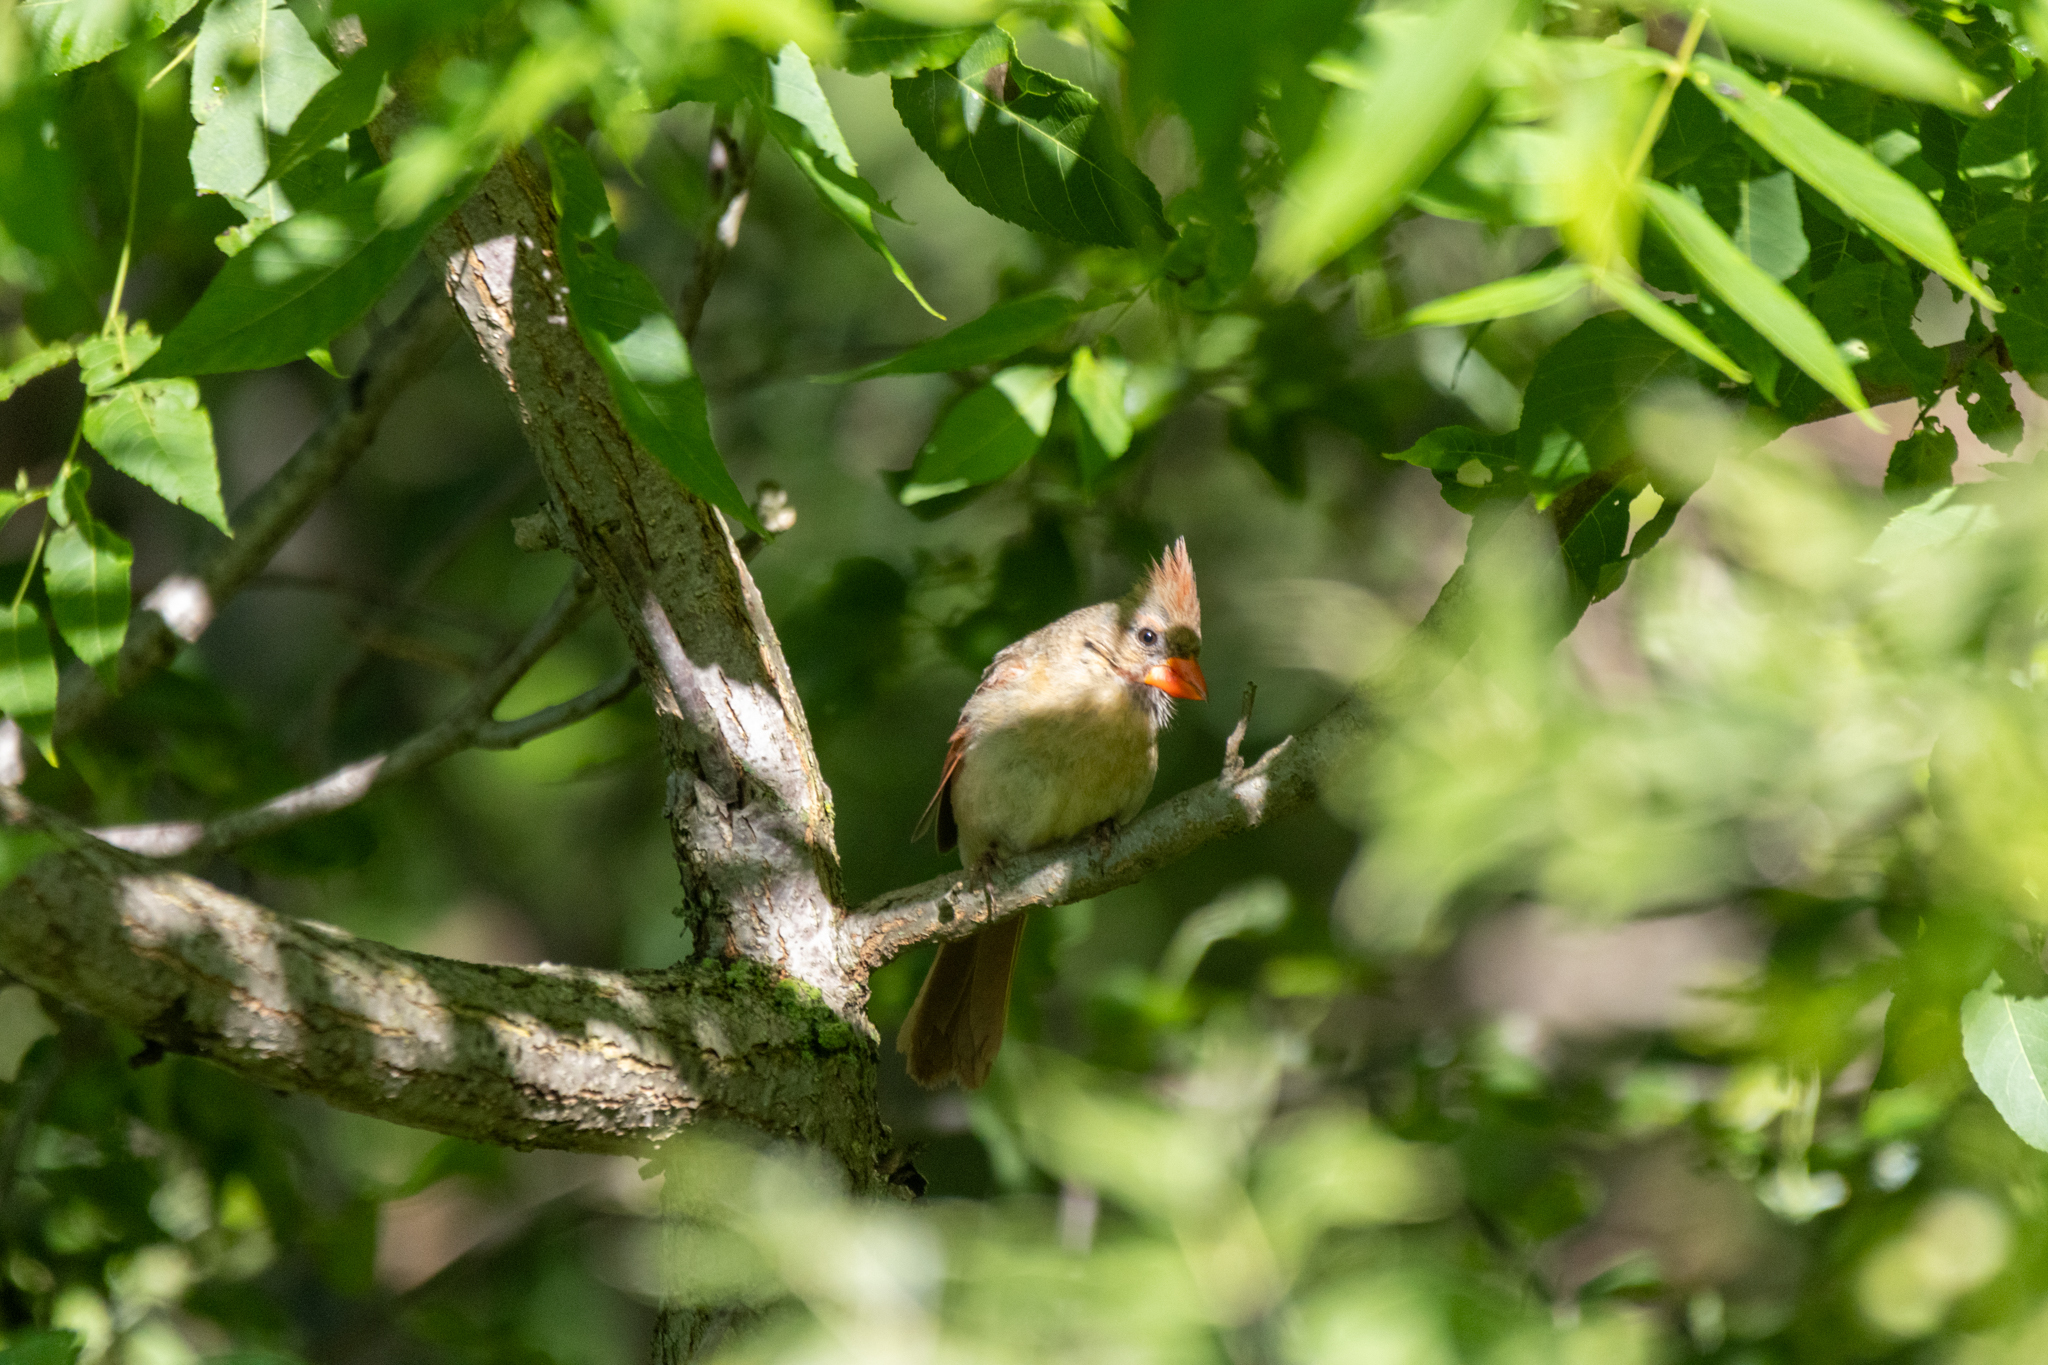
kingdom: Animalia
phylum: Chordata
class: Aves
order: Passeriformes
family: Cardinalidae
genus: Cardinalis
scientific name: Cardinalis cardinalis
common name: Northern cardinal
